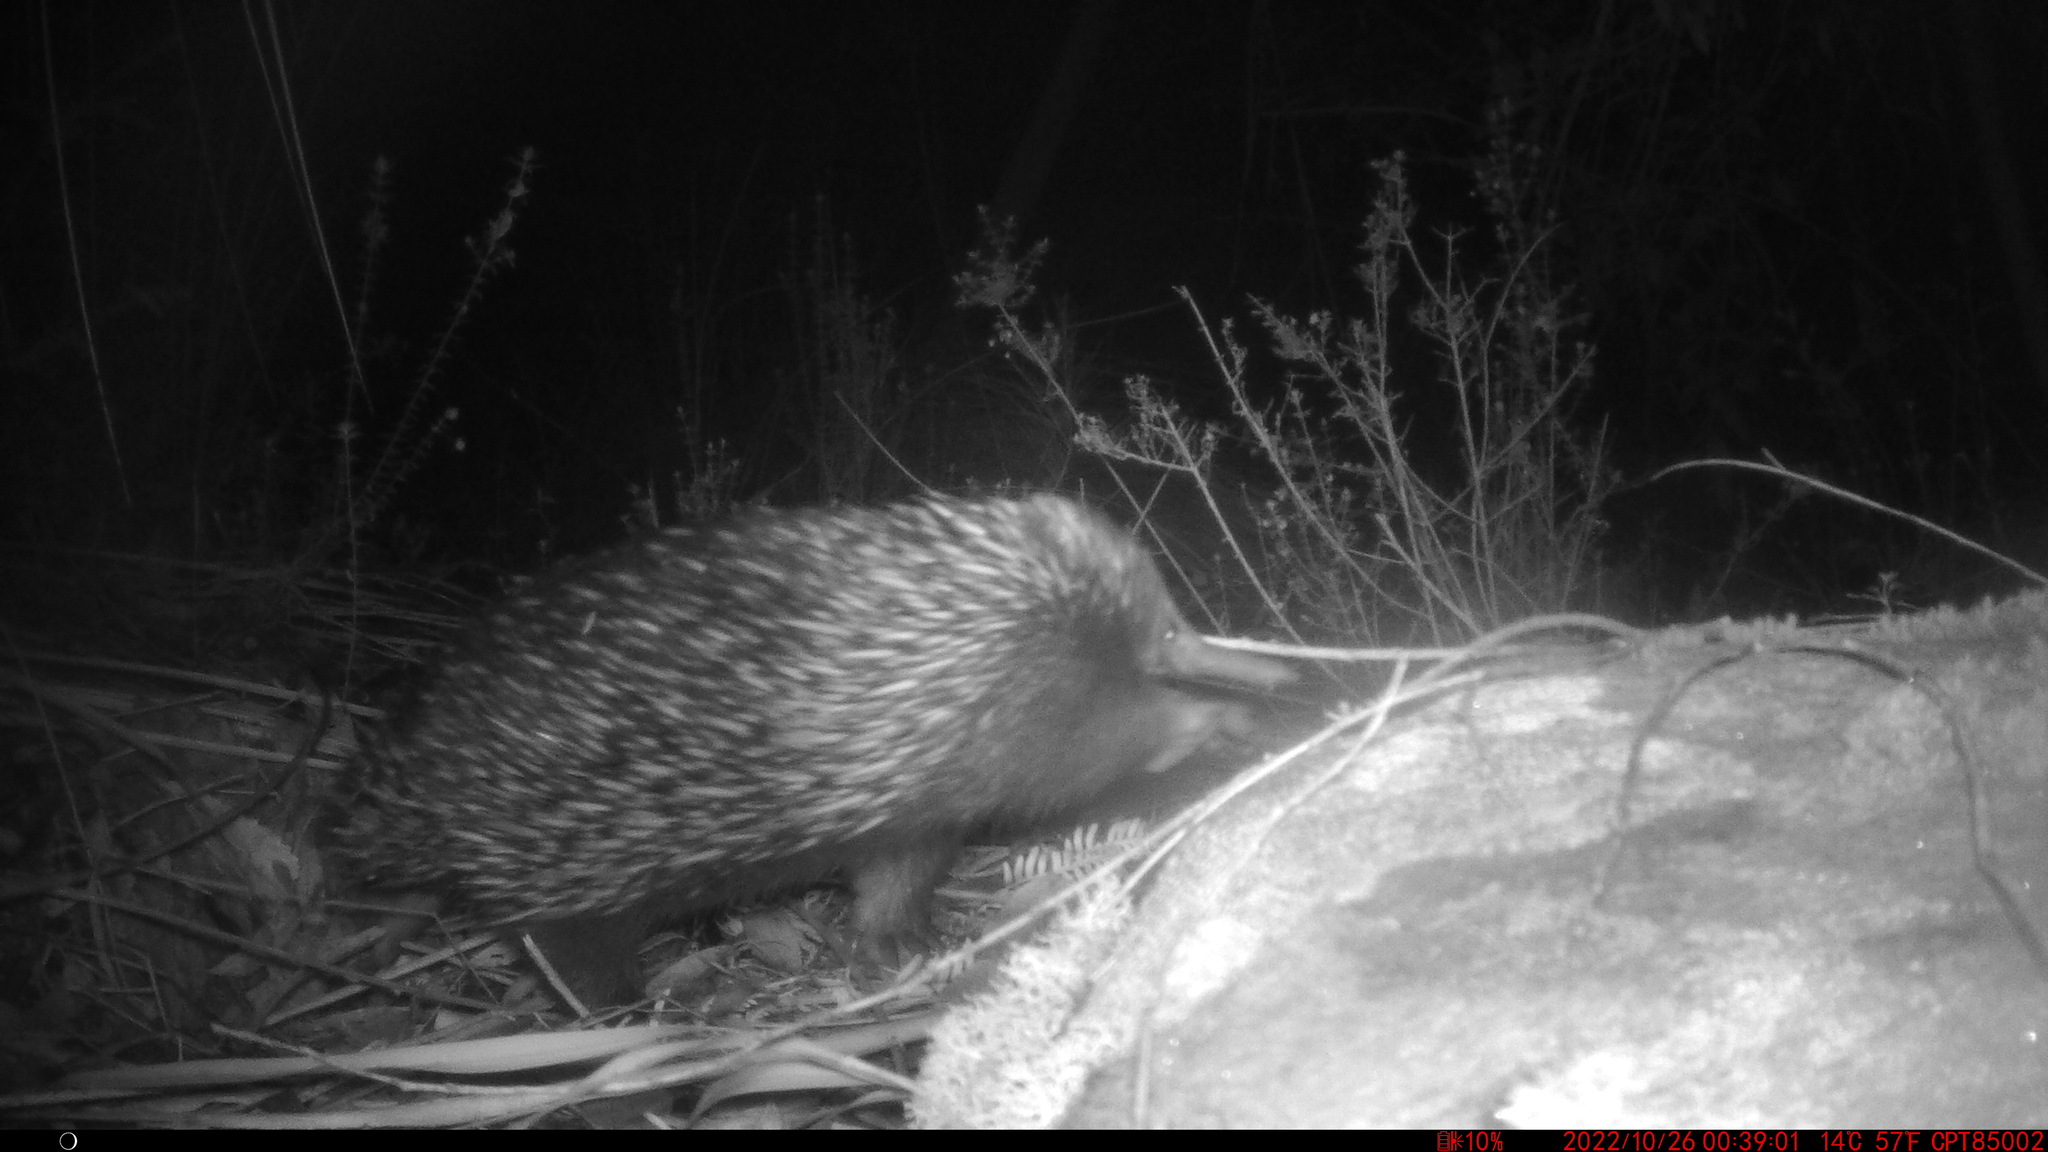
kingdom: Animalia
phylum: Chordata
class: Mammalia
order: Monotremata
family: Tachyglossidae
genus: Tachyglossus
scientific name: Tachyglossus aculeatus
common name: Short-beaked echidna
